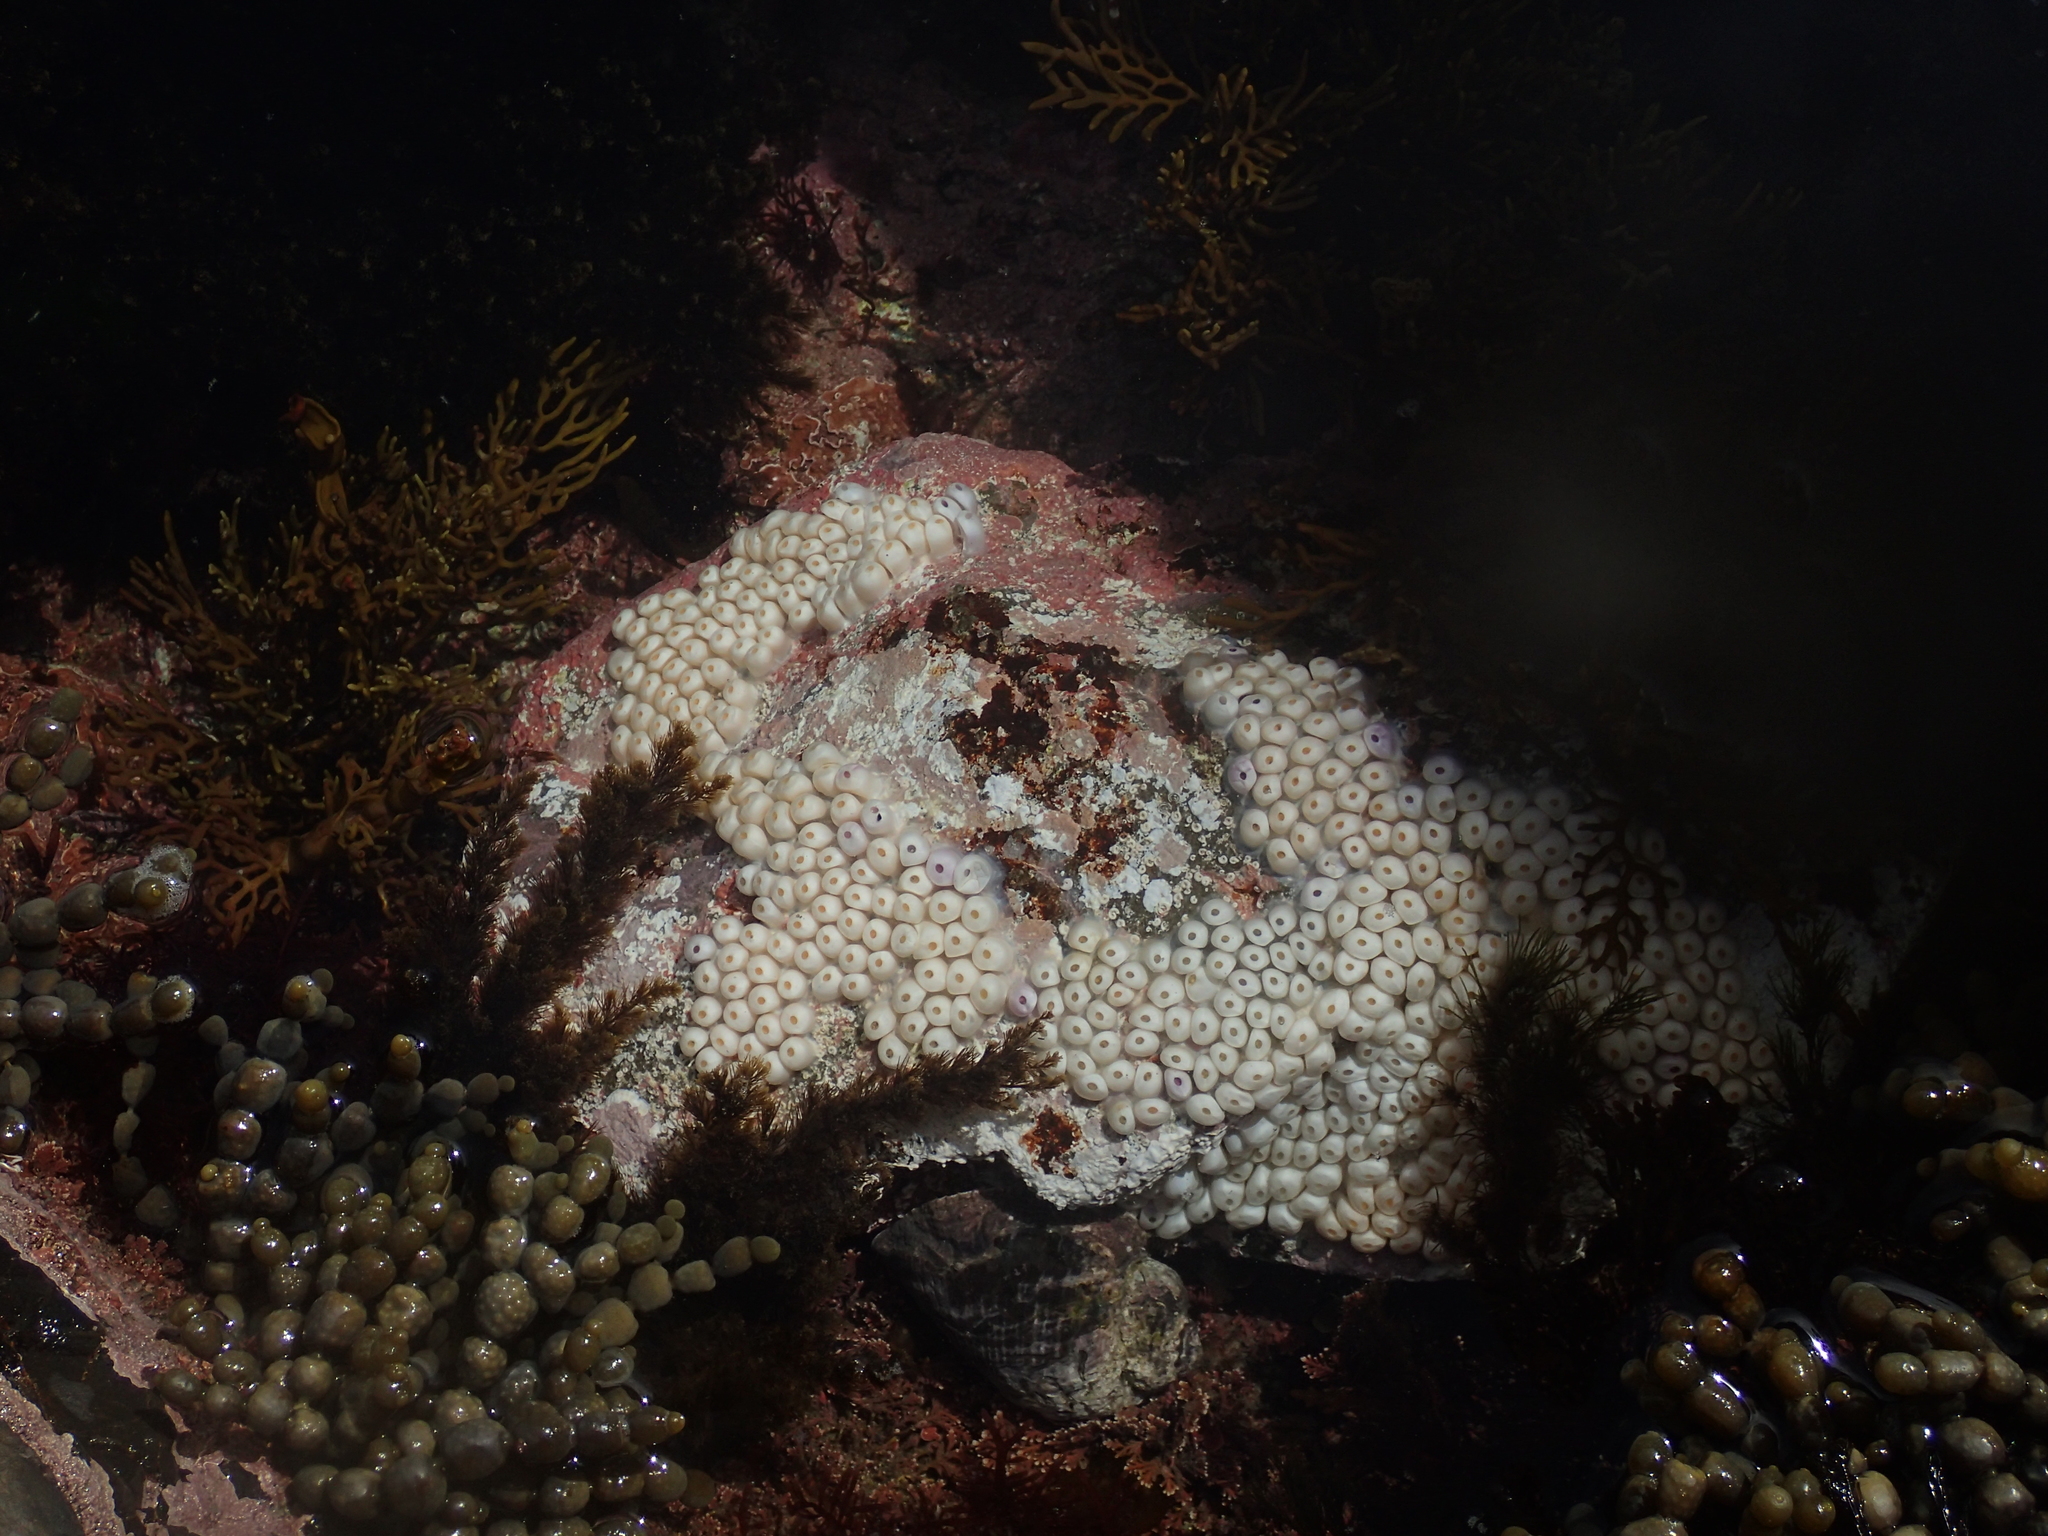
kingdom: Animalia
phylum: Mollusca
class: Gastropoda
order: Neogastropoda
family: Muricidae
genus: Haustrum
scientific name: Haustrum haustorium
